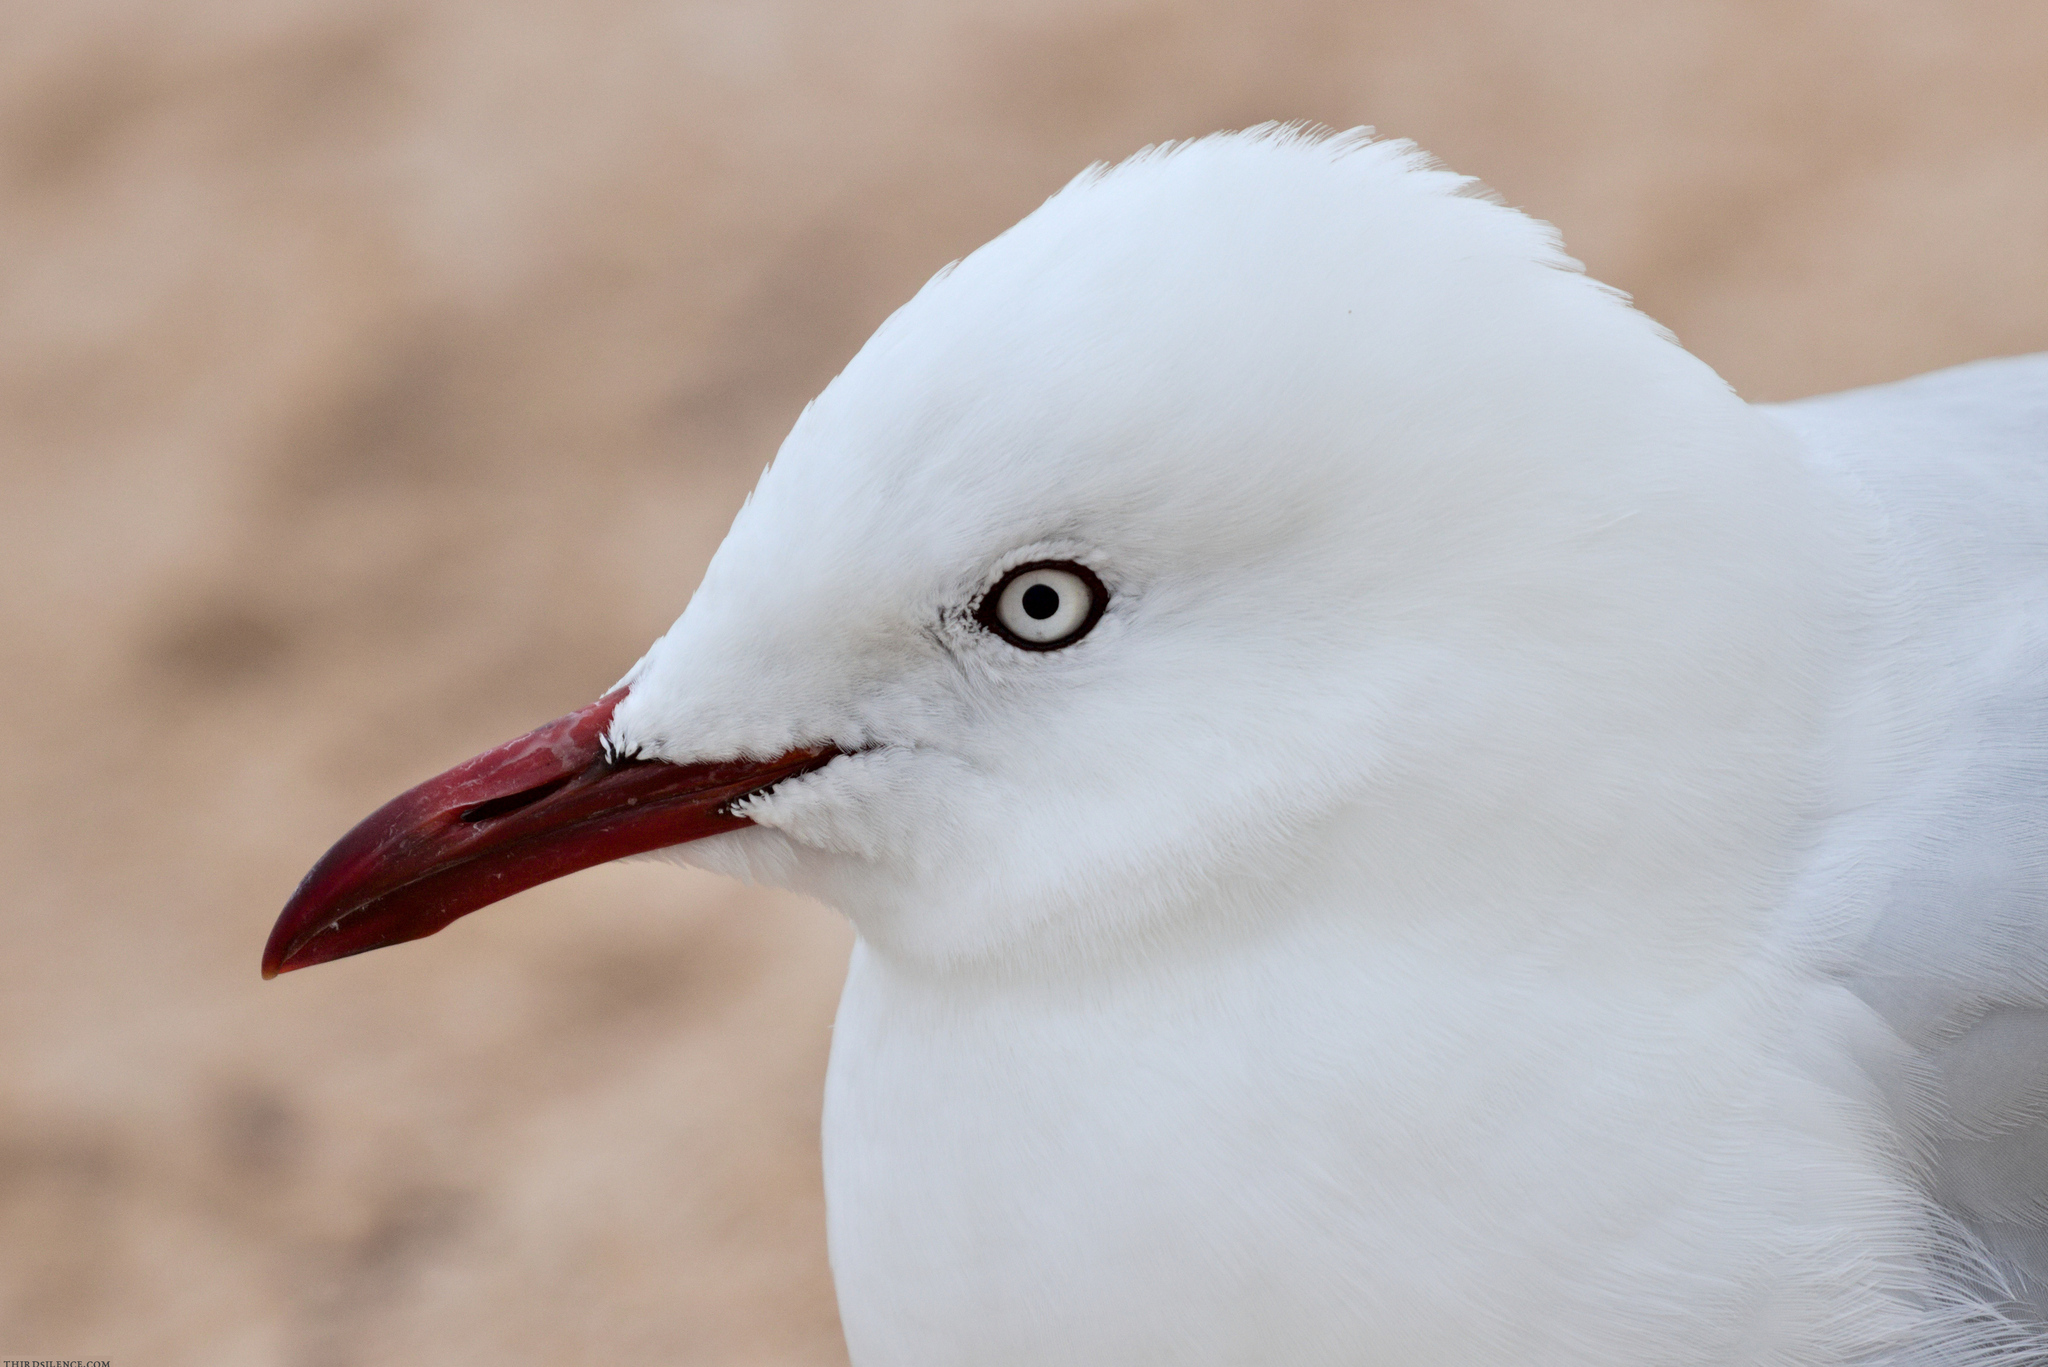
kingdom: Animalia
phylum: Chordata
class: Aves
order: Charadriiformes
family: Laridae
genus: Chroicocephalus
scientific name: Chroicocephalus novaehollandiae
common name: Silver gull
